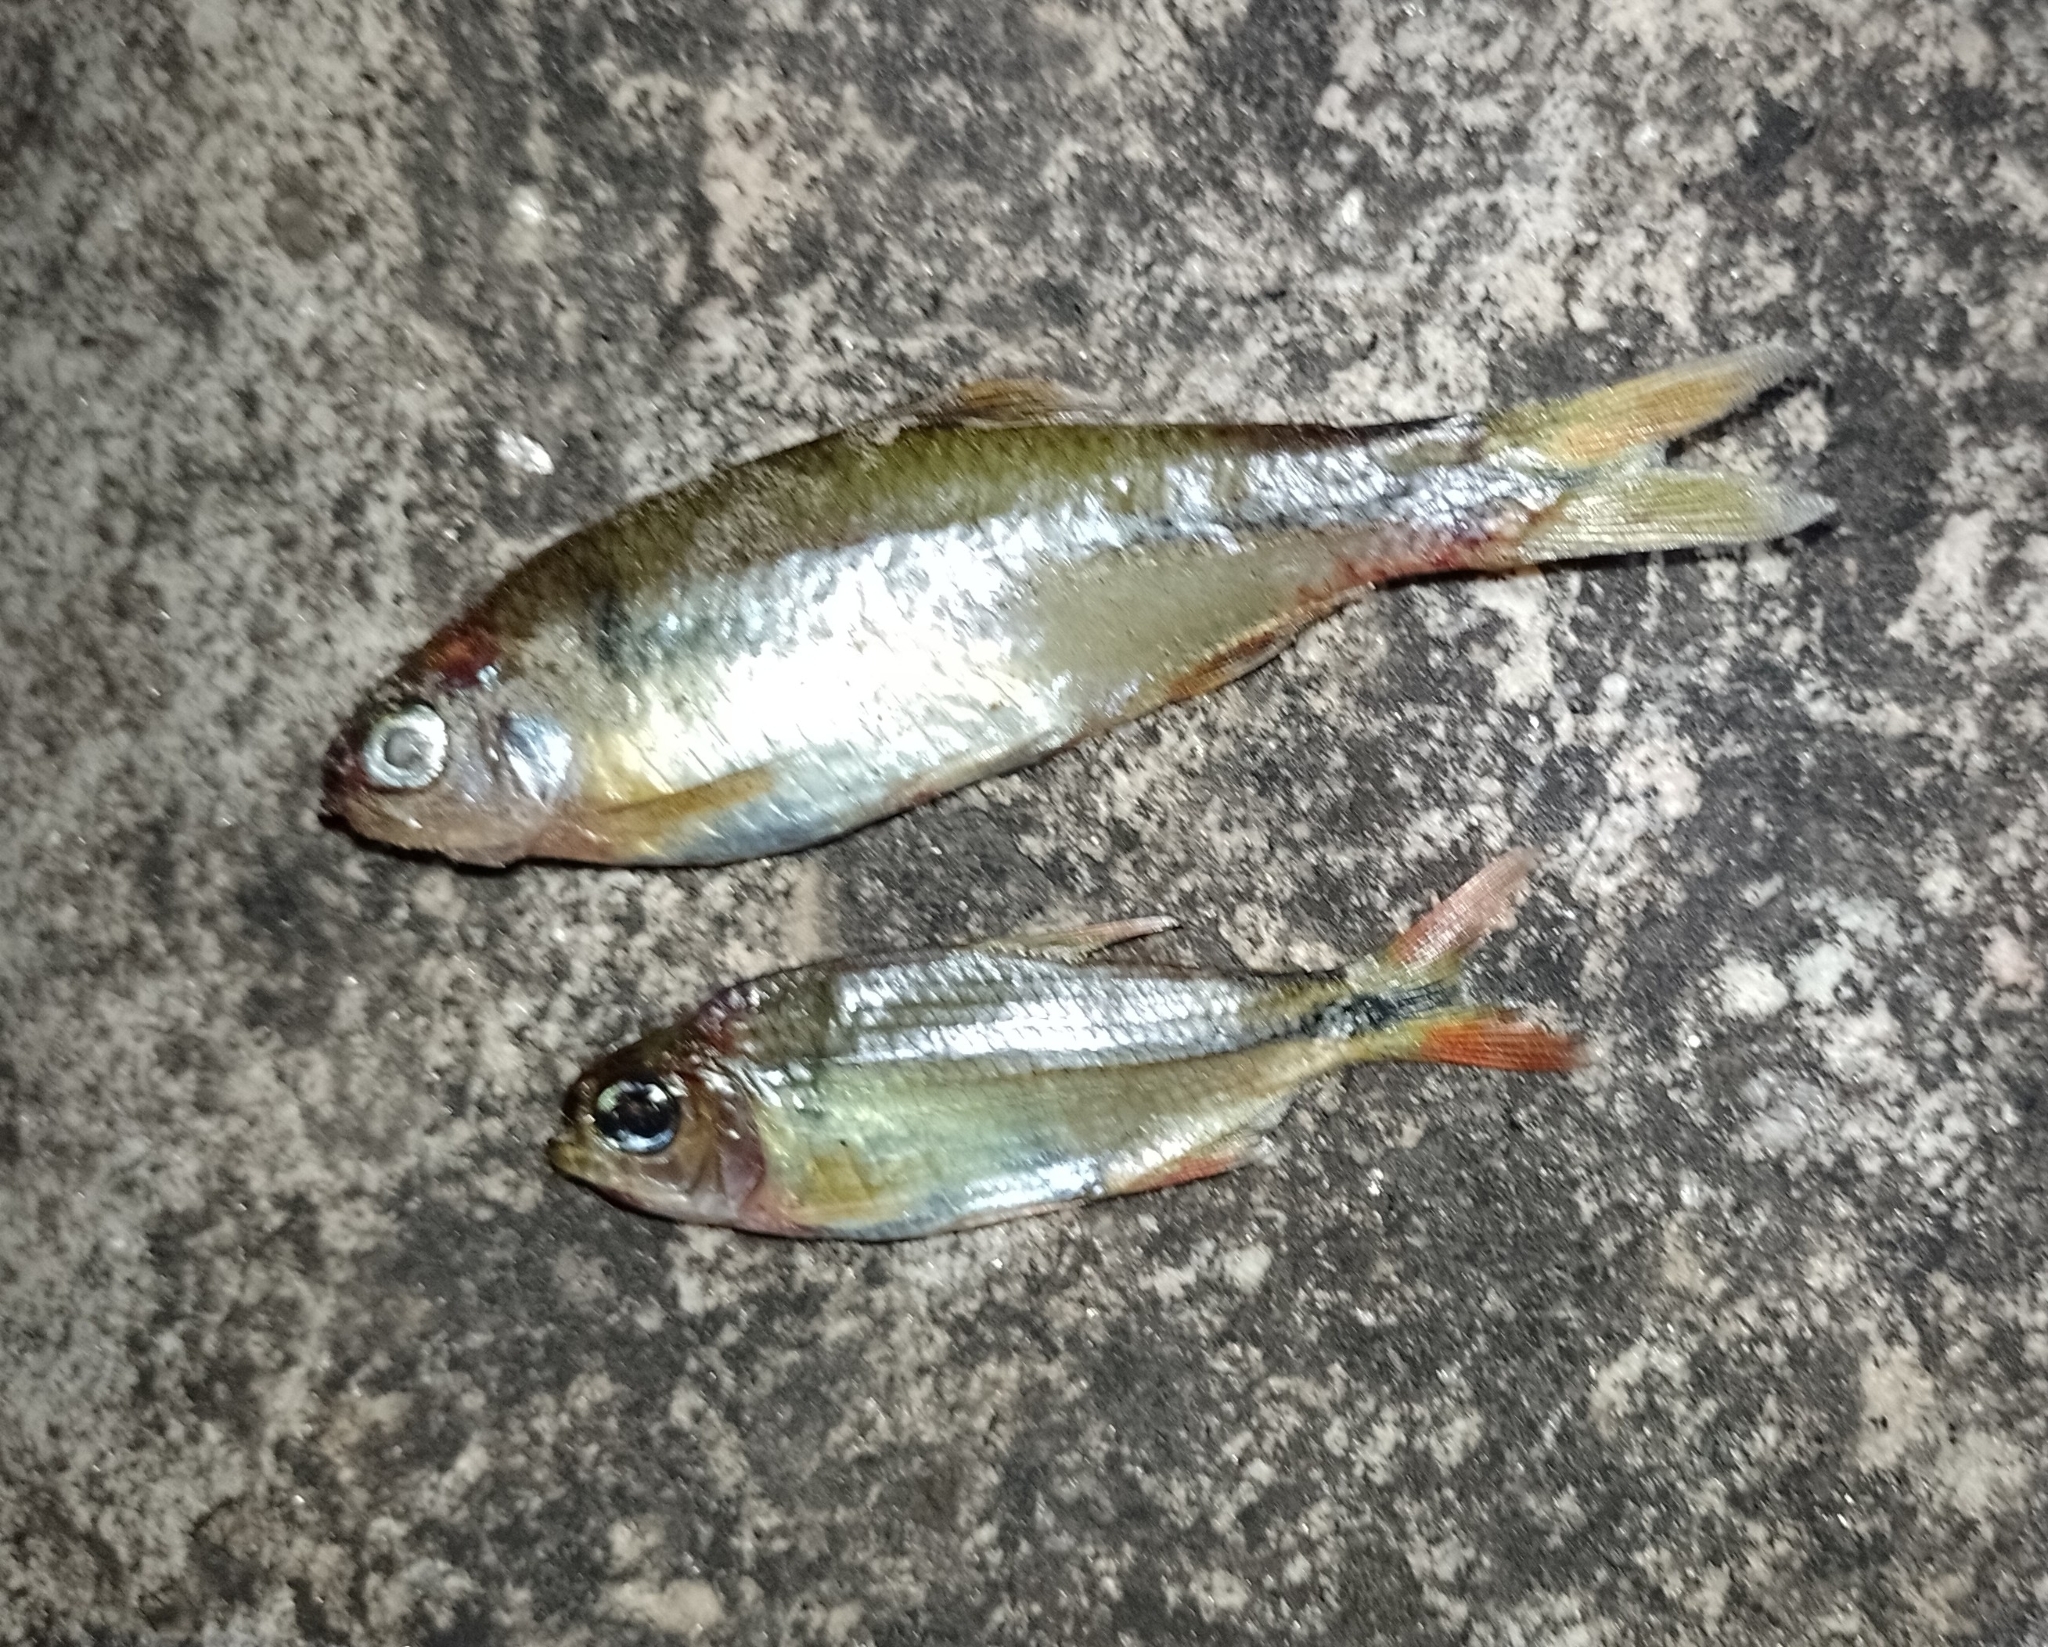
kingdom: Animalia
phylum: Chordata
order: Characiformes
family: Characidae
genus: Bryconamericus
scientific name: Bryconamericus iheringii
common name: Tetra
